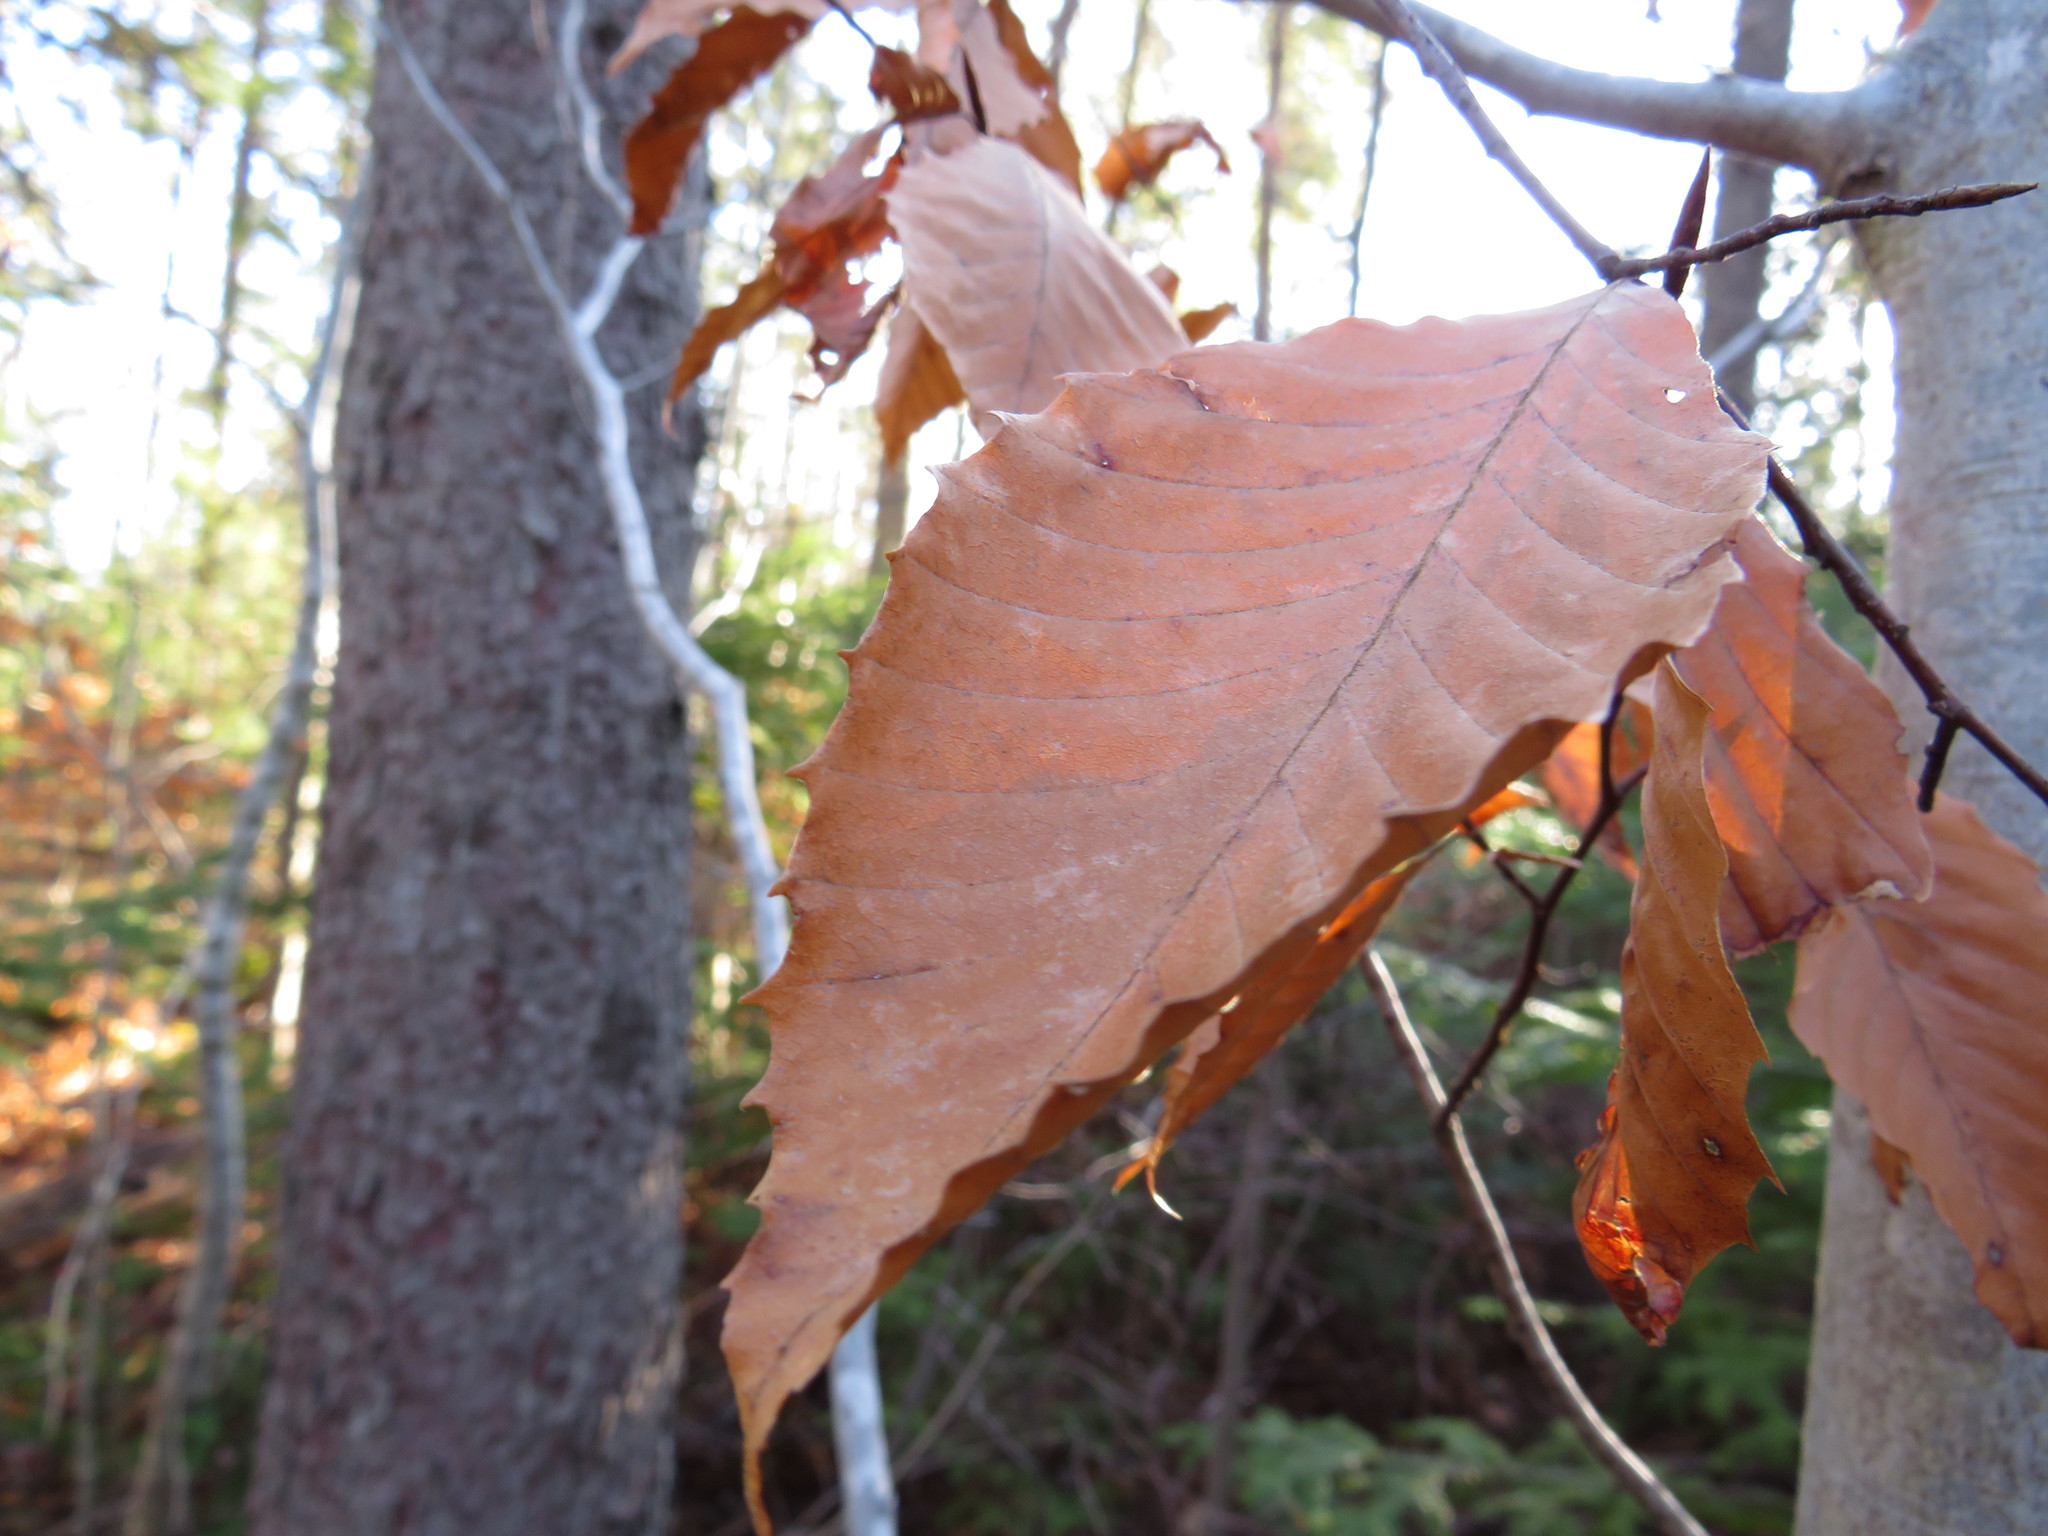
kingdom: Plantae
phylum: Tracheophyta
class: Magnoliopsida
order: Fagales
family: Fagaceae
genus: Fagus
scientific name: Fagus grandifolia
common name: American beech
